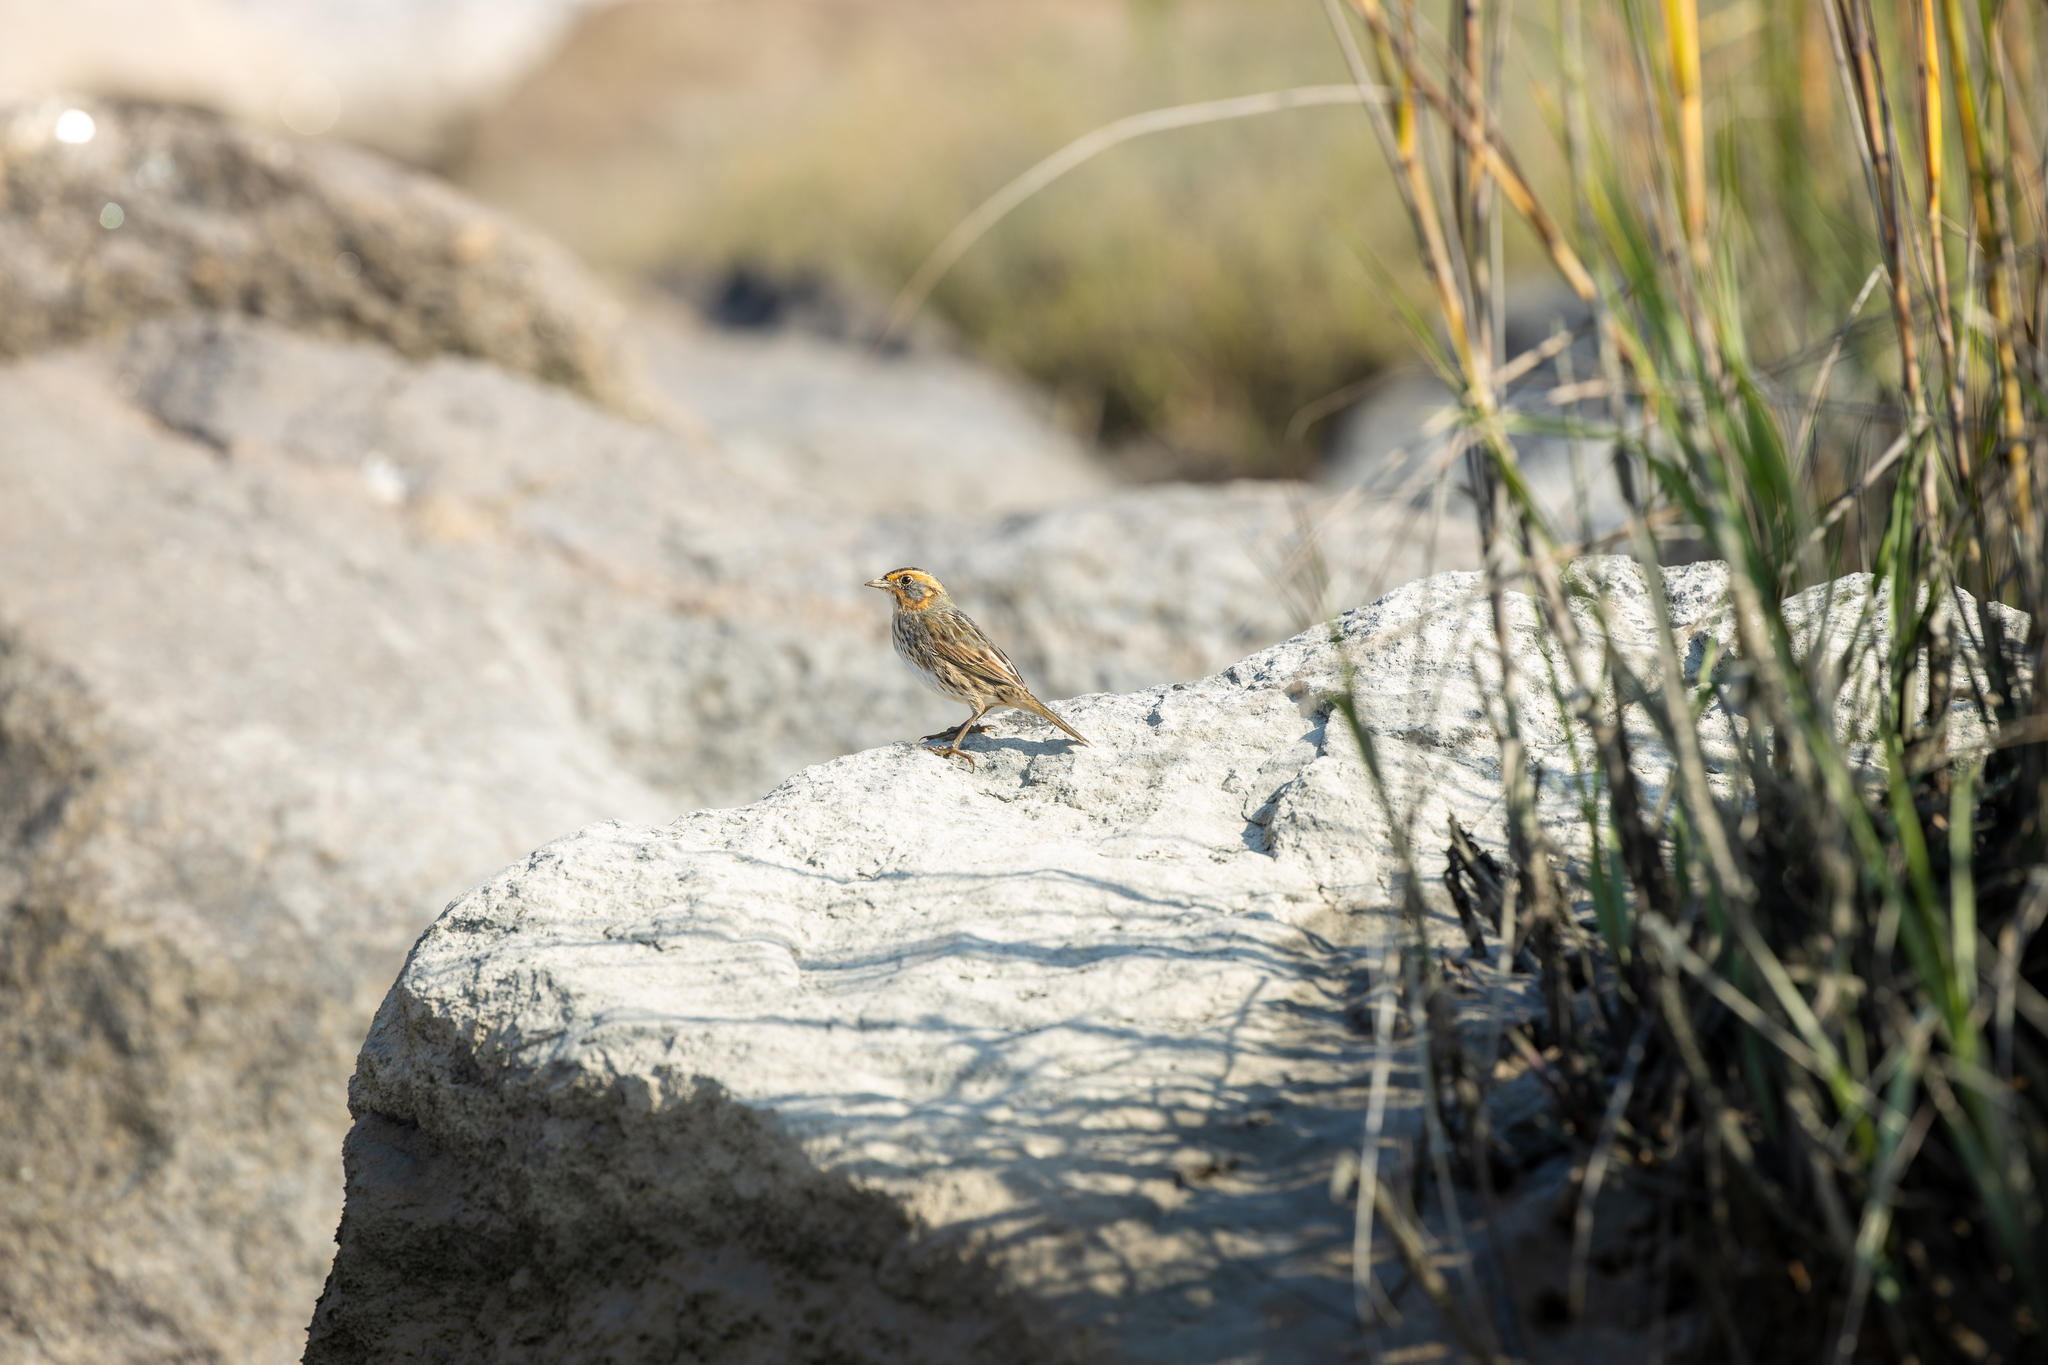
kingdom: Animalia
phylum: Chordata
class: Aves
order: Passeriformes
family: Passerellidae
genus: Ammospiza
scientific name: Ammospiza caudacuta
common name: Saltmarsh sparrow
